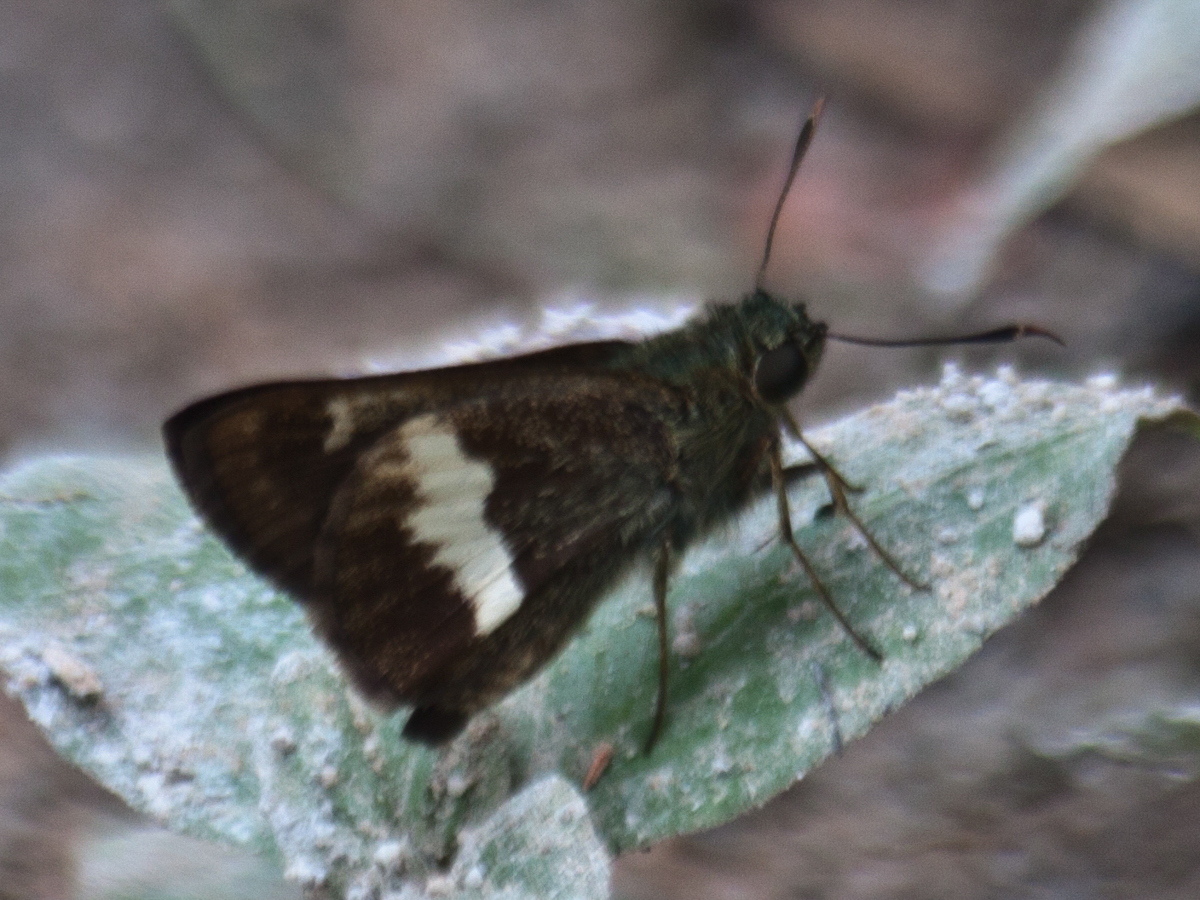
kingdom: Animalia
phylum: Arthropoda
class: Insecta
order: Lepidoptera
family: Hesperiidae
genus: Halpe
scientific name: Halpe zola
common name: Long-banded ace
